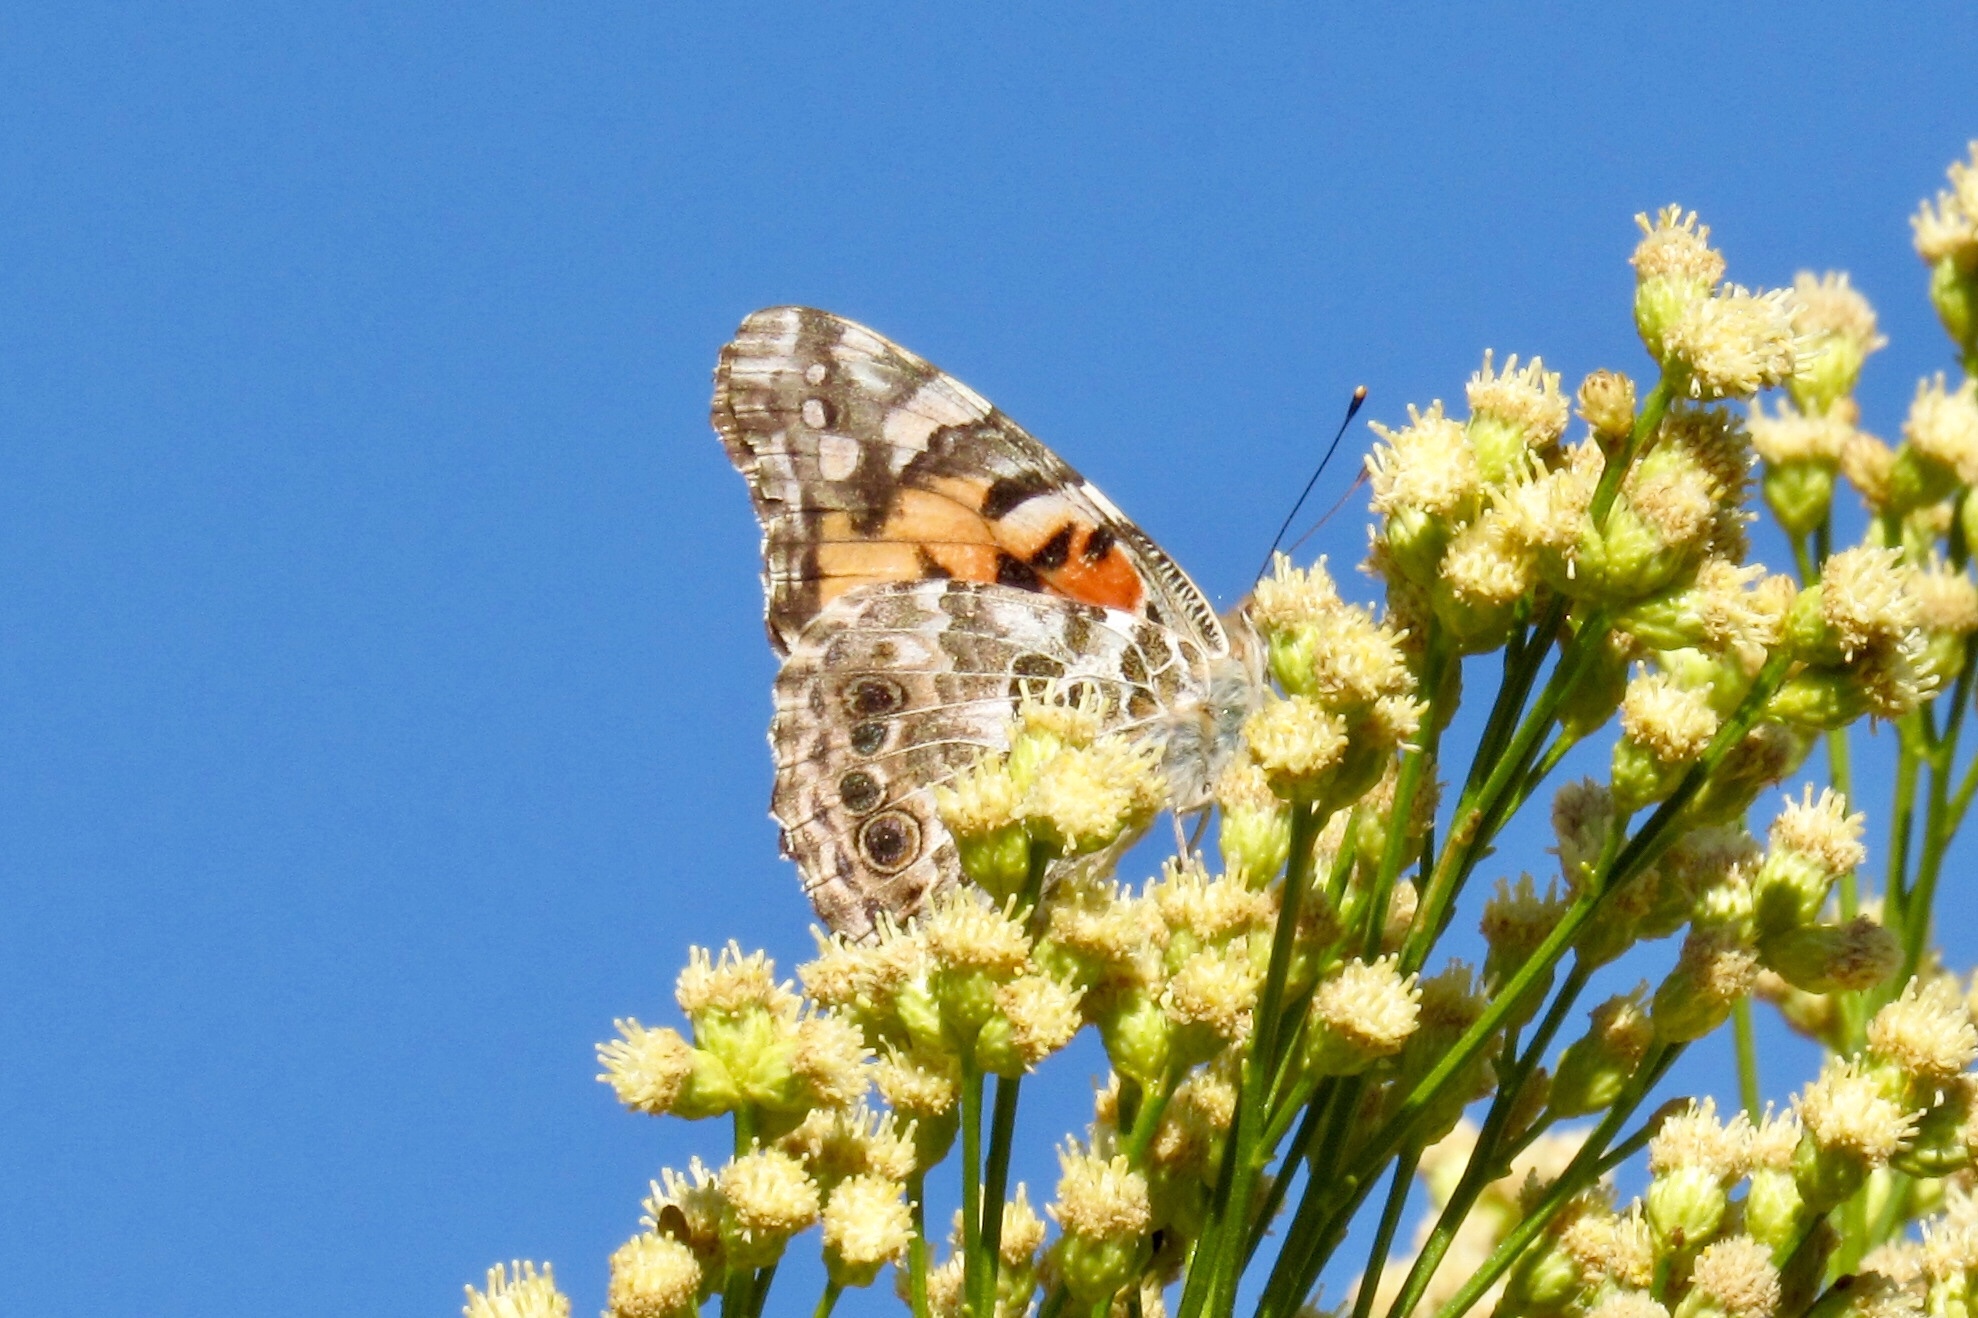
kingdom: Animalia
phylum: Arthropoda
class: Insecta
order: Lepidoptera
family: Nymphalidae
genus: Vanessa
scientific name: Vanessa cardui
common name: Painted lady
